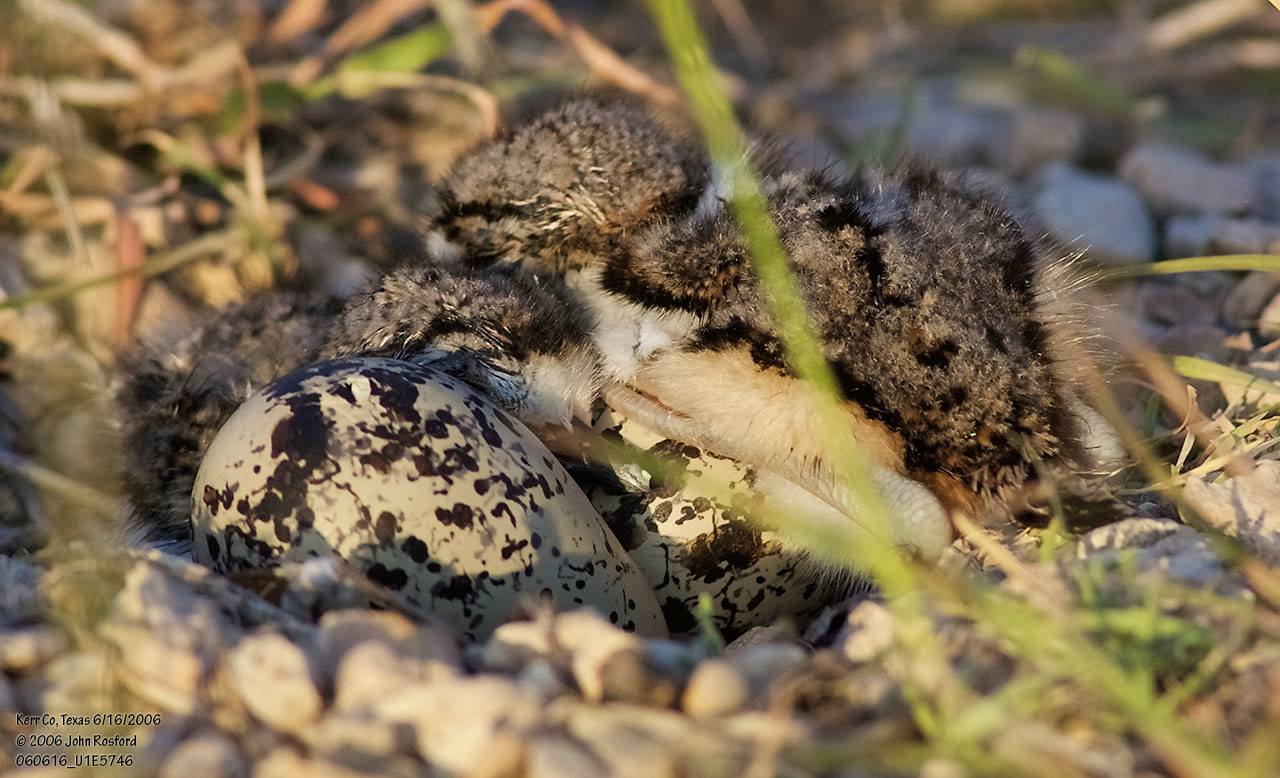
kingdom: Animalia
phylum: Chordata
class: Aves
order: Charadriiformes
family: Charadriidae
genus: Charadrius
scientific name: Charadrius vociferus
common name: Killdeer
